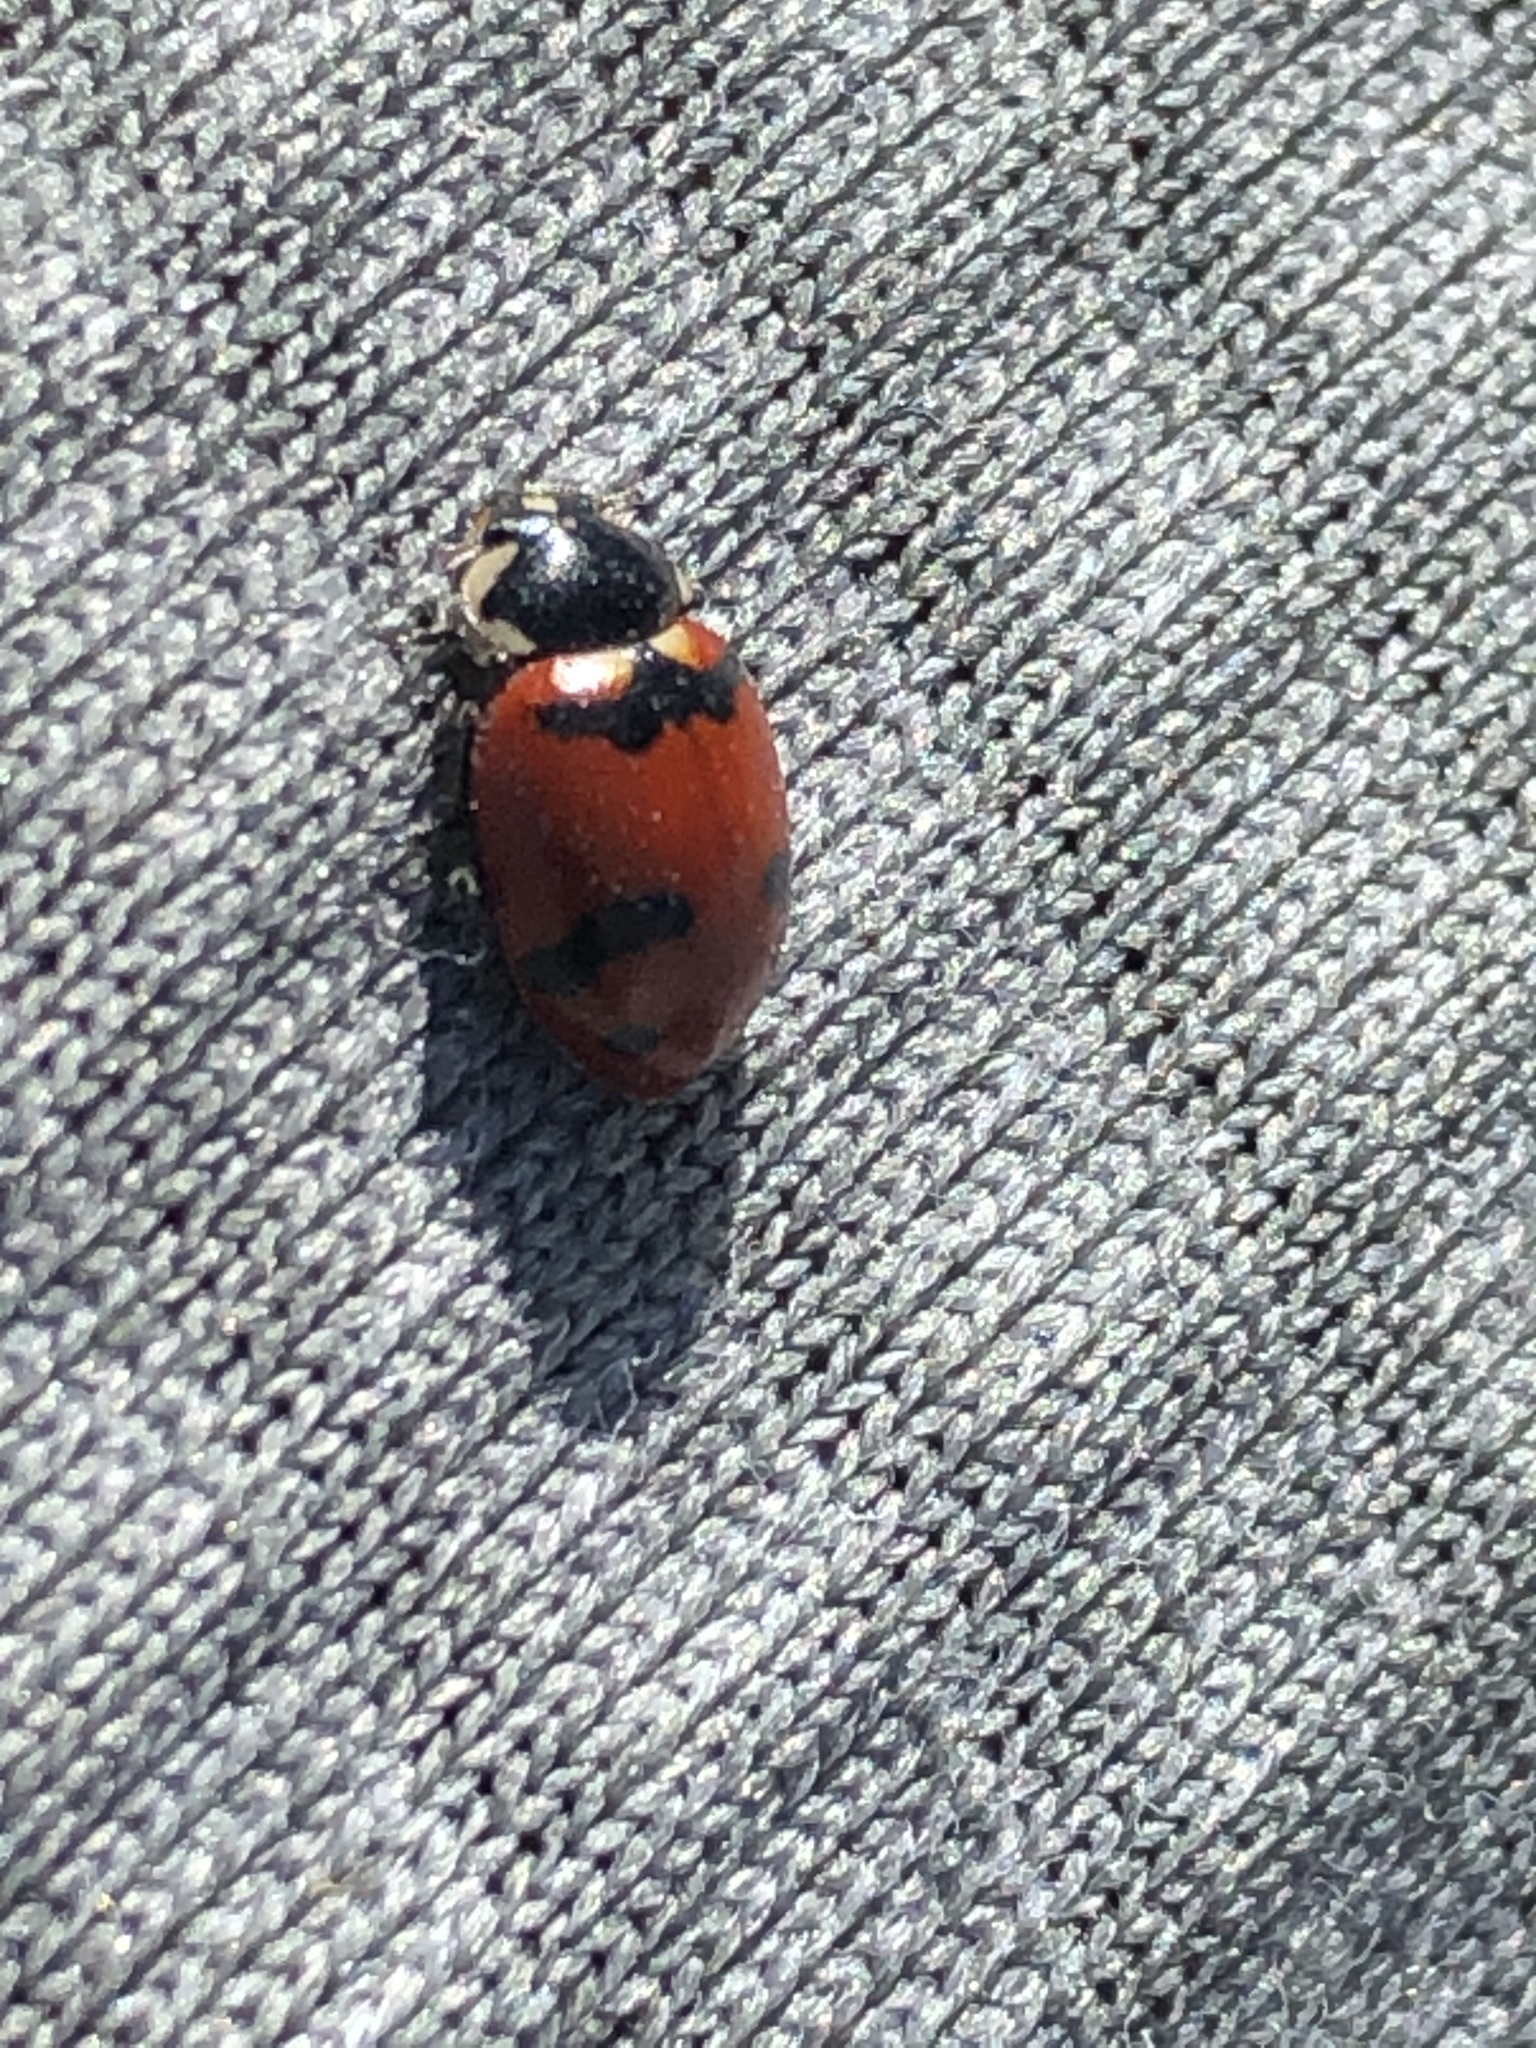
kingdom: Animalia
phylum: Arthropoda
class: Insecta
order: Coleoptera
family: Coccinellidae
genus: Hippodamia
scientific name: Hippodamia glacialis
